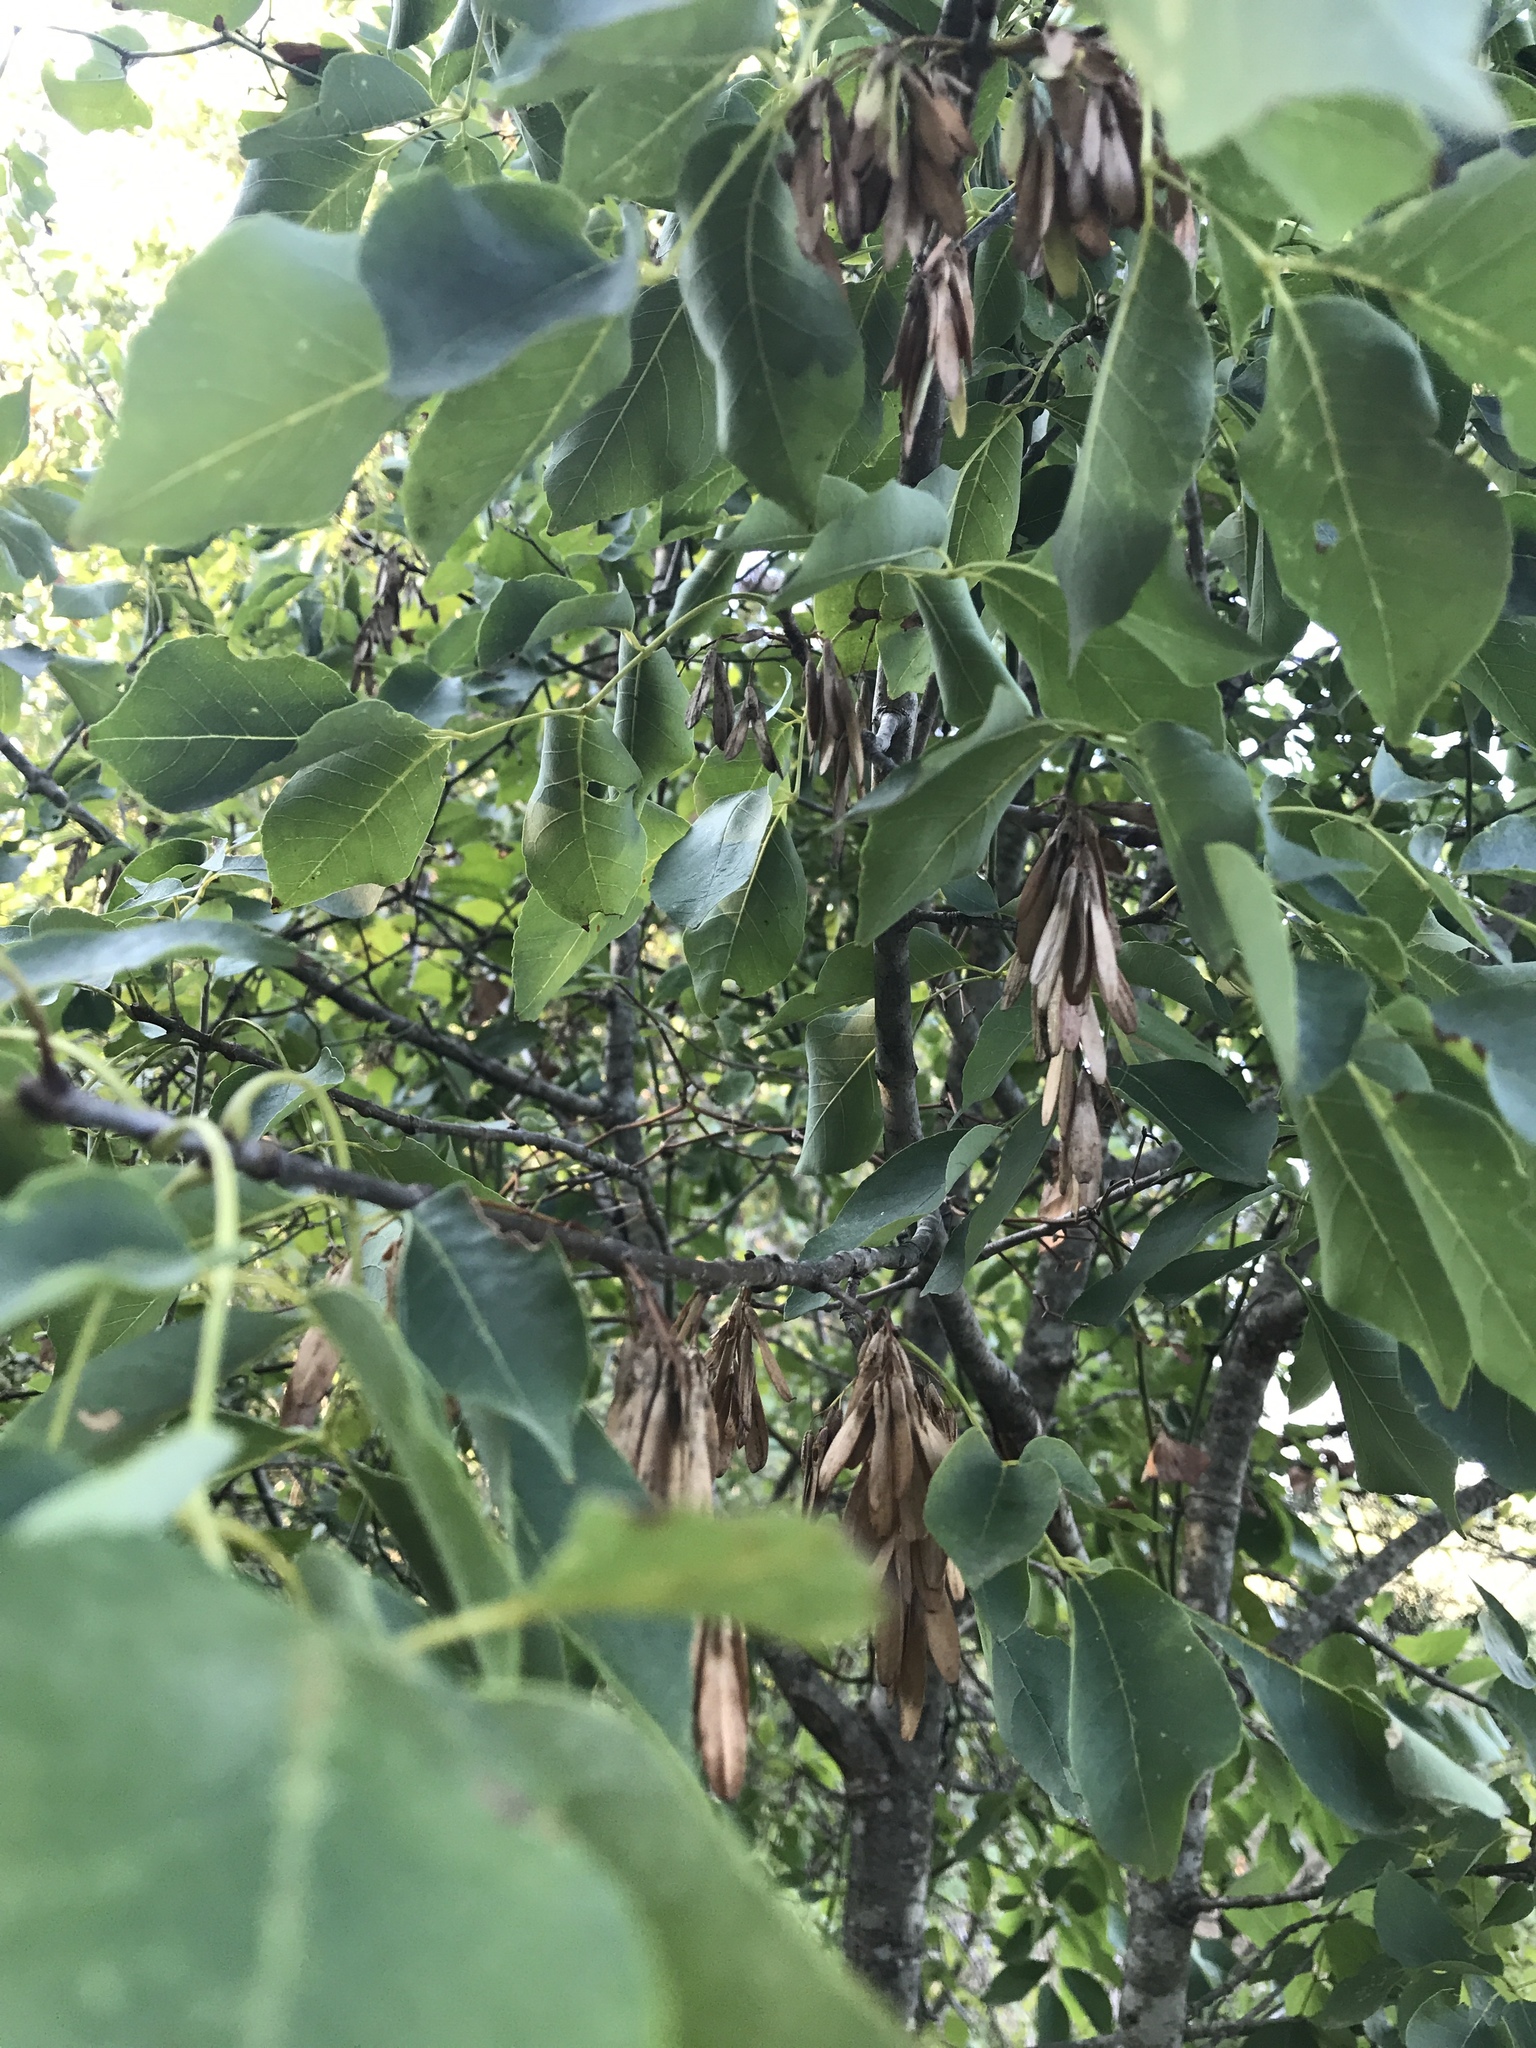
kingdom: Plantae
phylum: Tracheophyta
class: Magnoliopsida
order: Lamiales
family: Oleaceae
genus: Fraxinus
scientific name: Fraxinus albicans
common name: Texas ash
